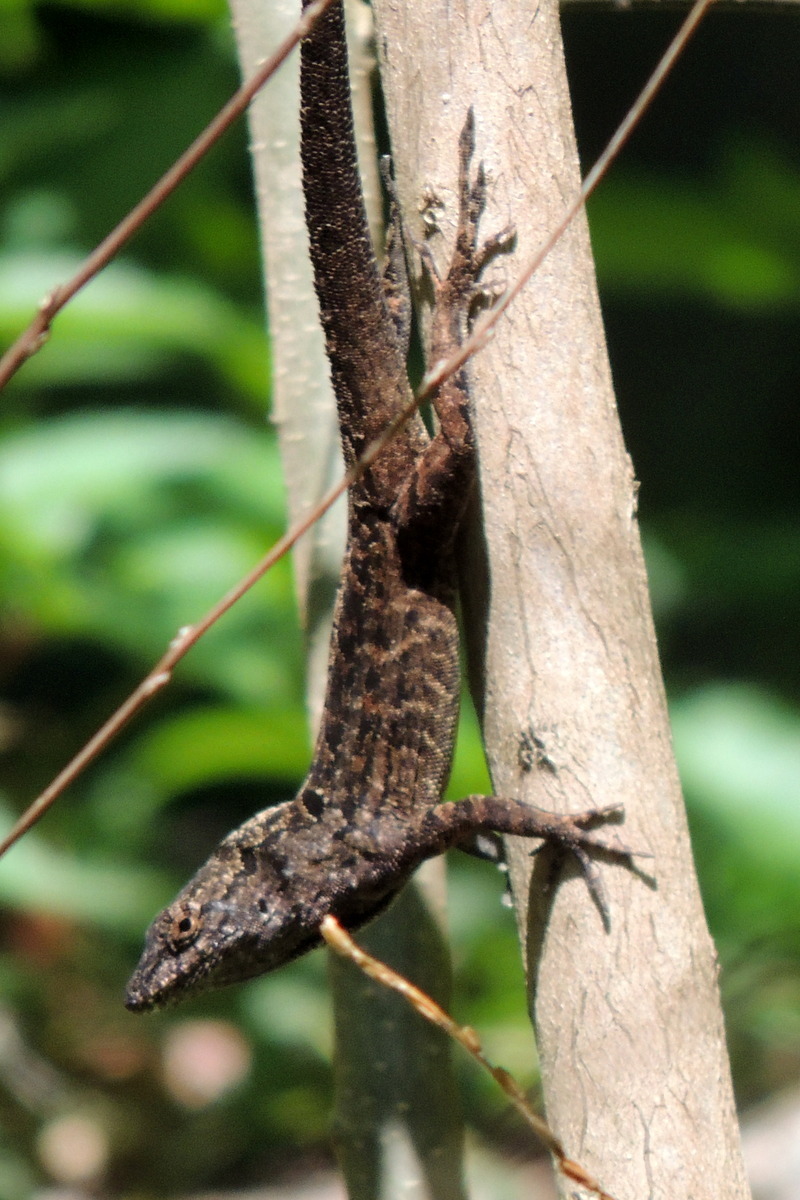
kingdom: Animalia
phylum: Chordata
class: Squamata
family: Dactyloidae
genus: Anolis
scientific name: Anolis sagrei
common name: Brown anole
